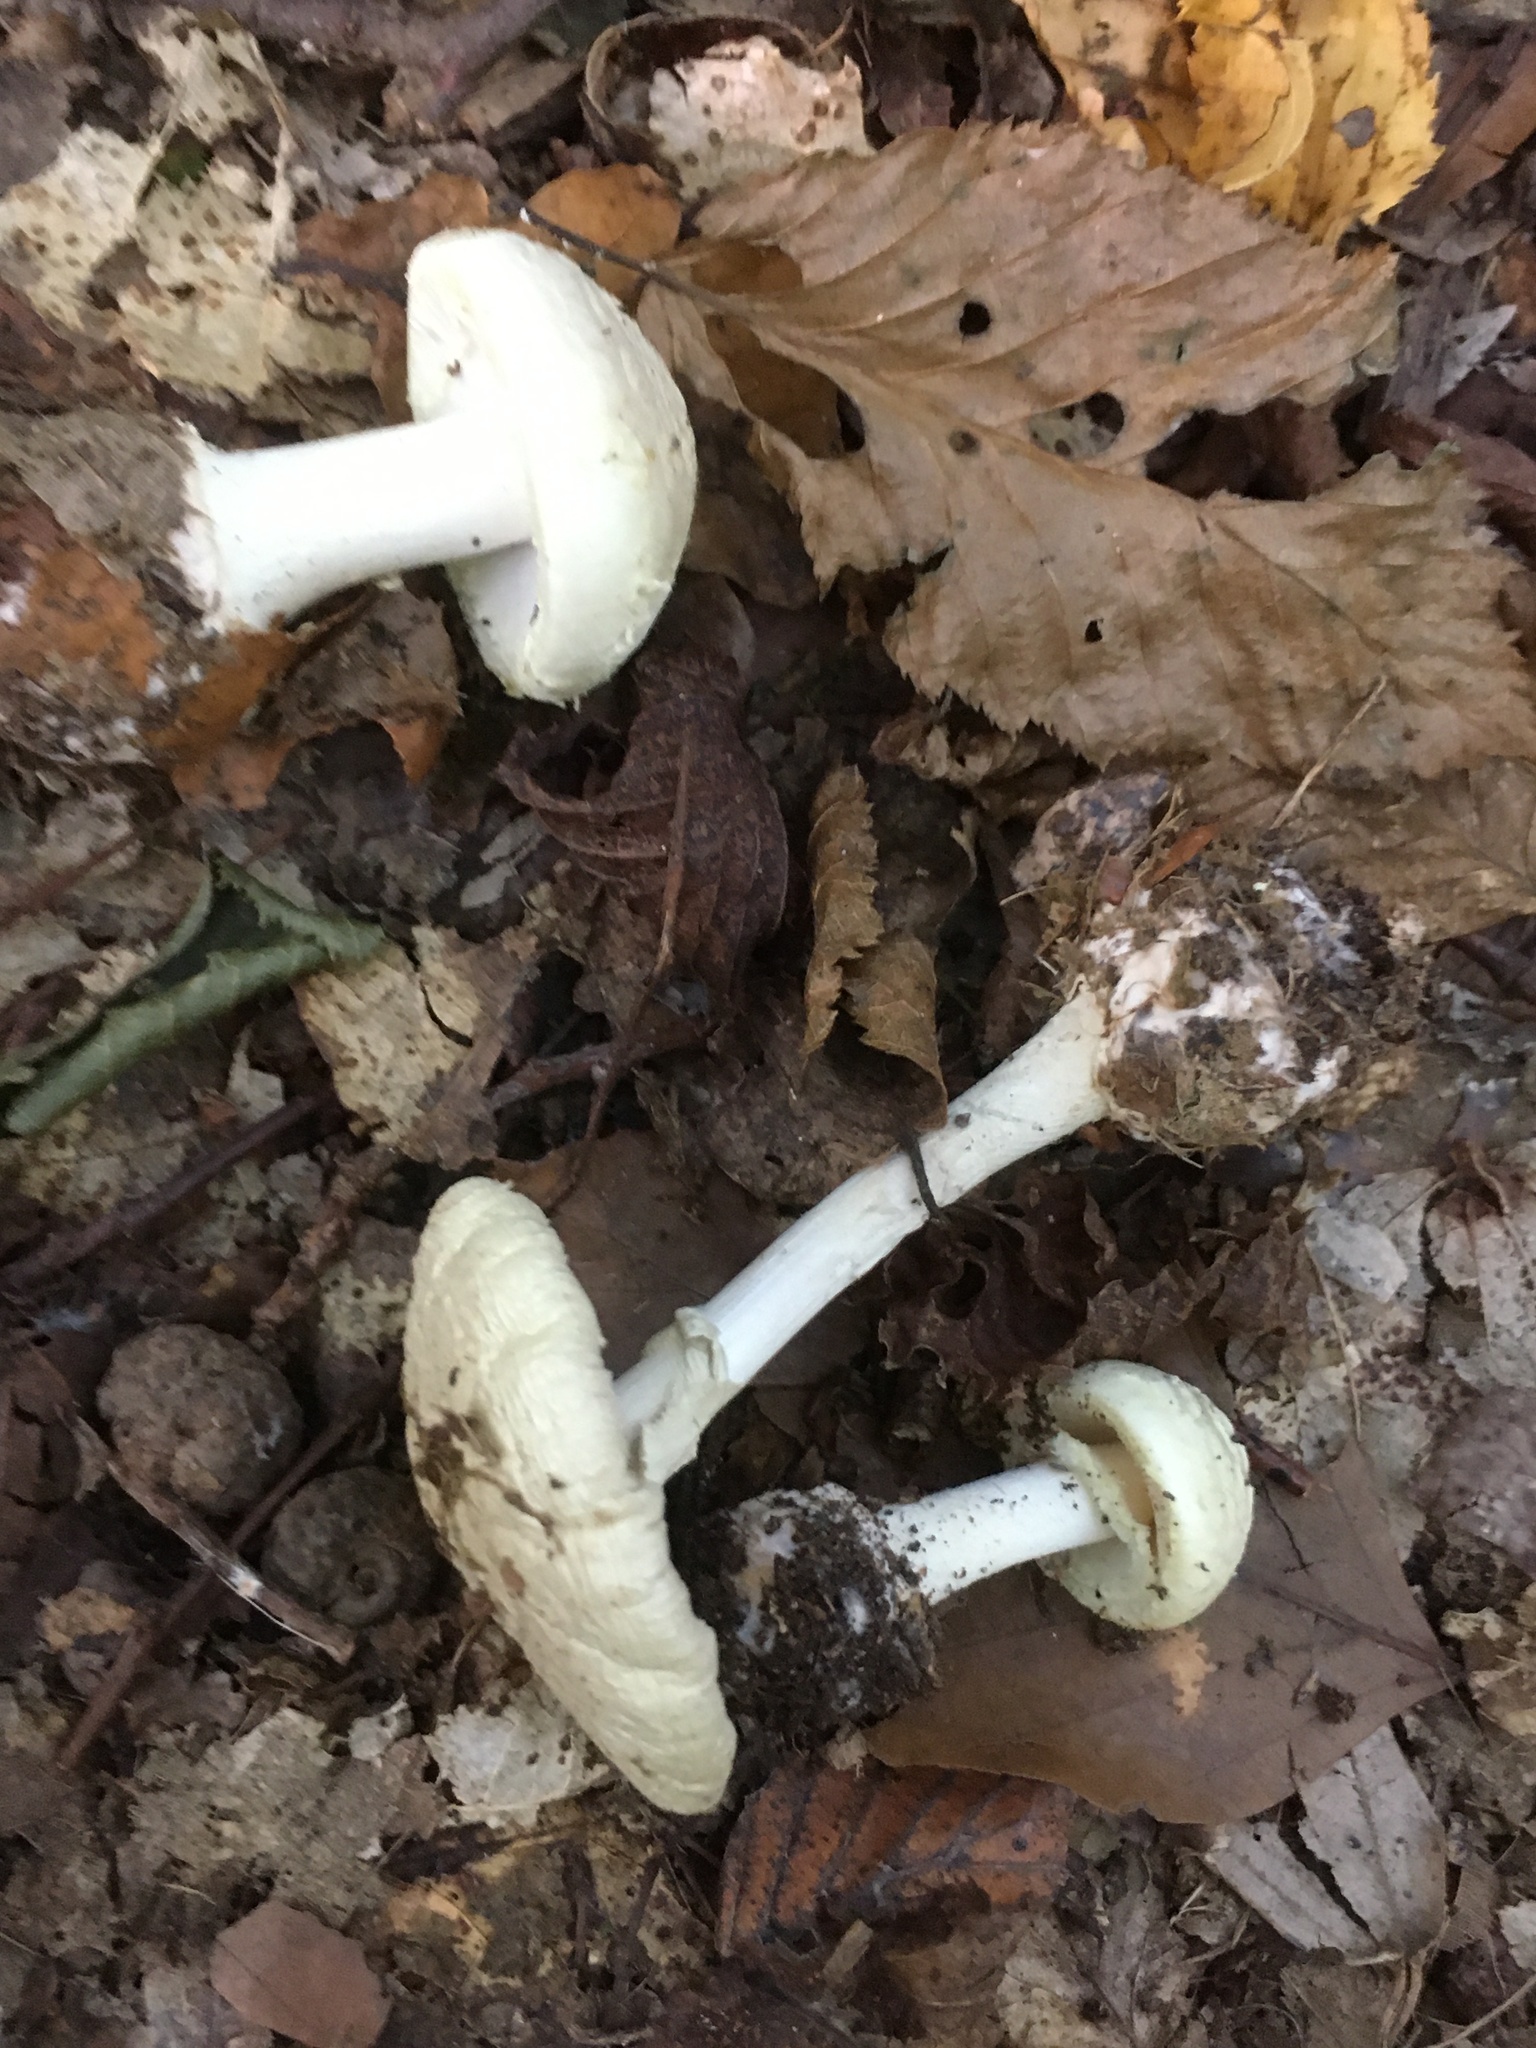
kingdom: Fungi
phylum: Basidiomycota
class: Agaricomycetes
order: Agaricales
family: Amanitaceae
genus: Amanita
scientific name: Amanita citrina
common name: False death-cap
